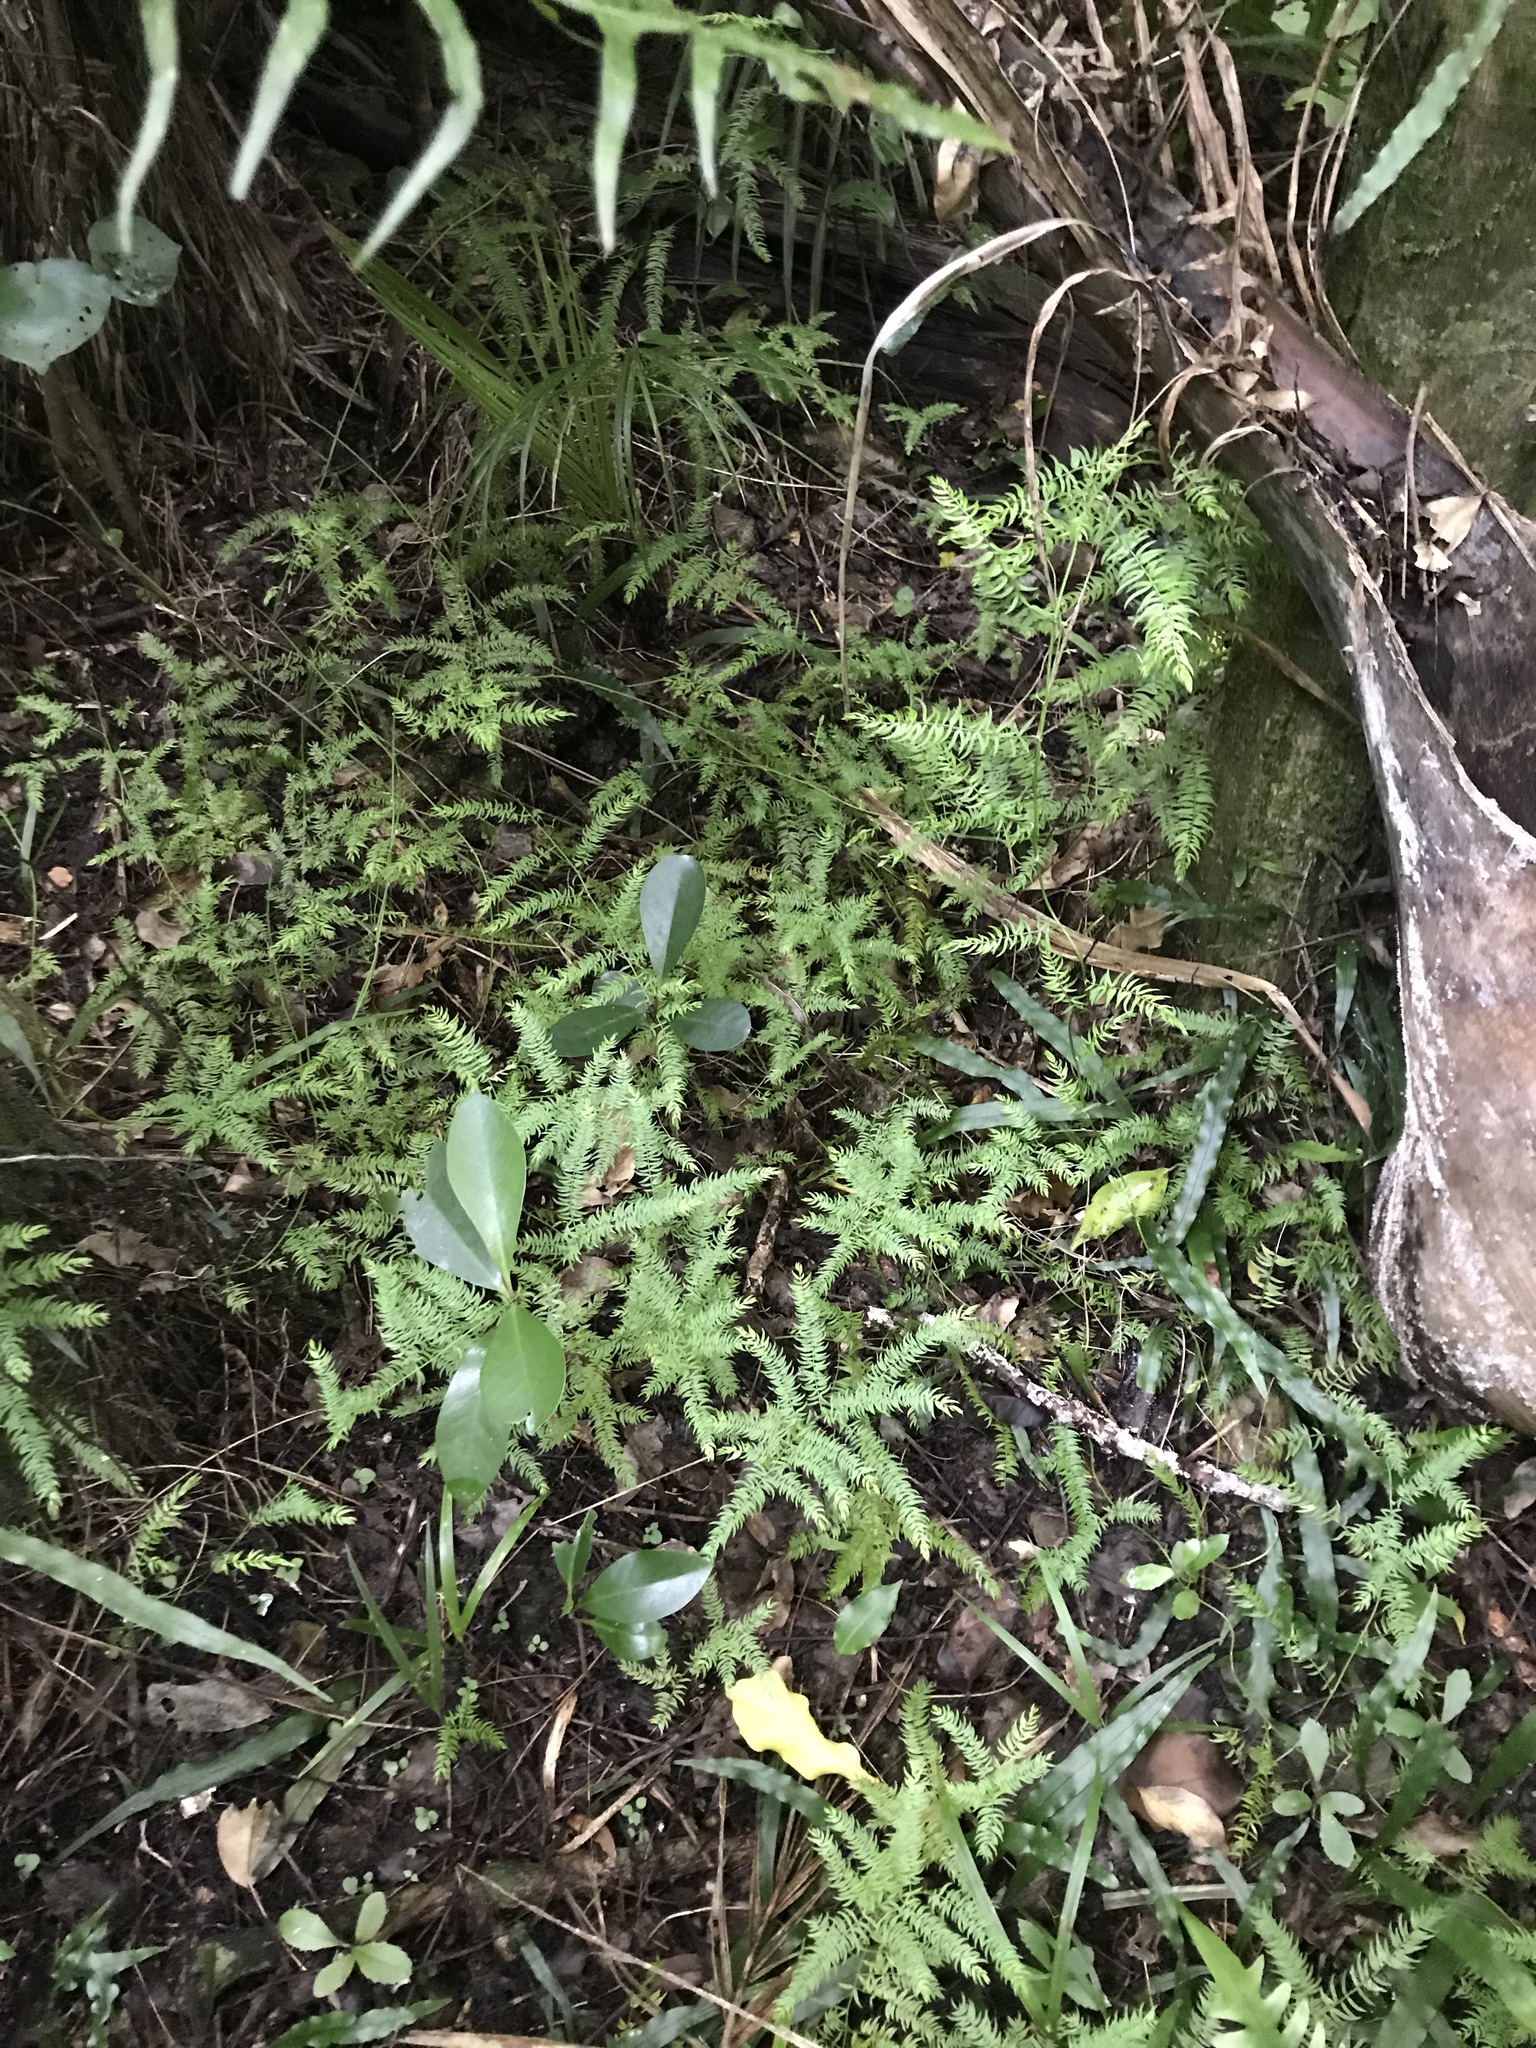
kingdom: Plantae
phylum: Tracheophyta
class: Liliopsida
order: Asparagales
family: Asparagaceae
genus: Asparagus
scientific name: Asparagus scandens
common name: Asparagus-fern
